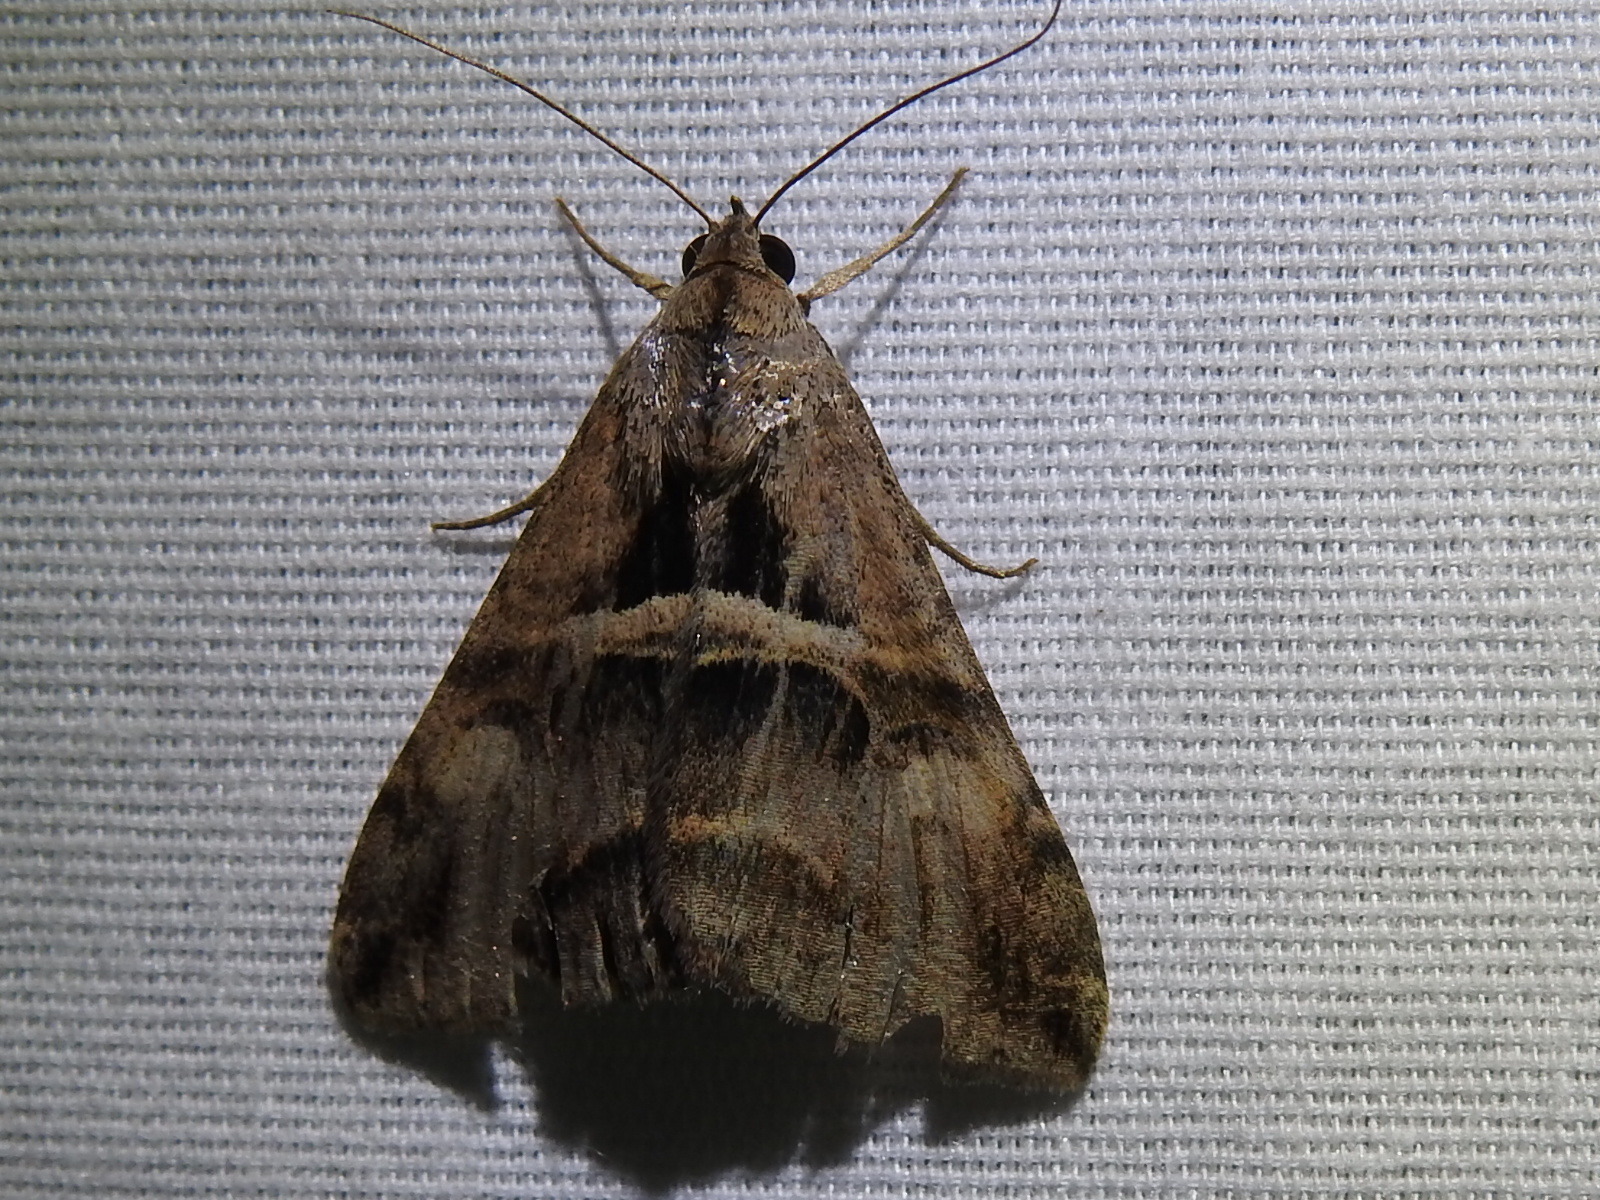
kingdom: Animalia
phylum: Arthropoda
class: Insecta
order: Lepidoptera
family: Erebidae
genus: Melipotis
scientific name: Melipotis cellaris
